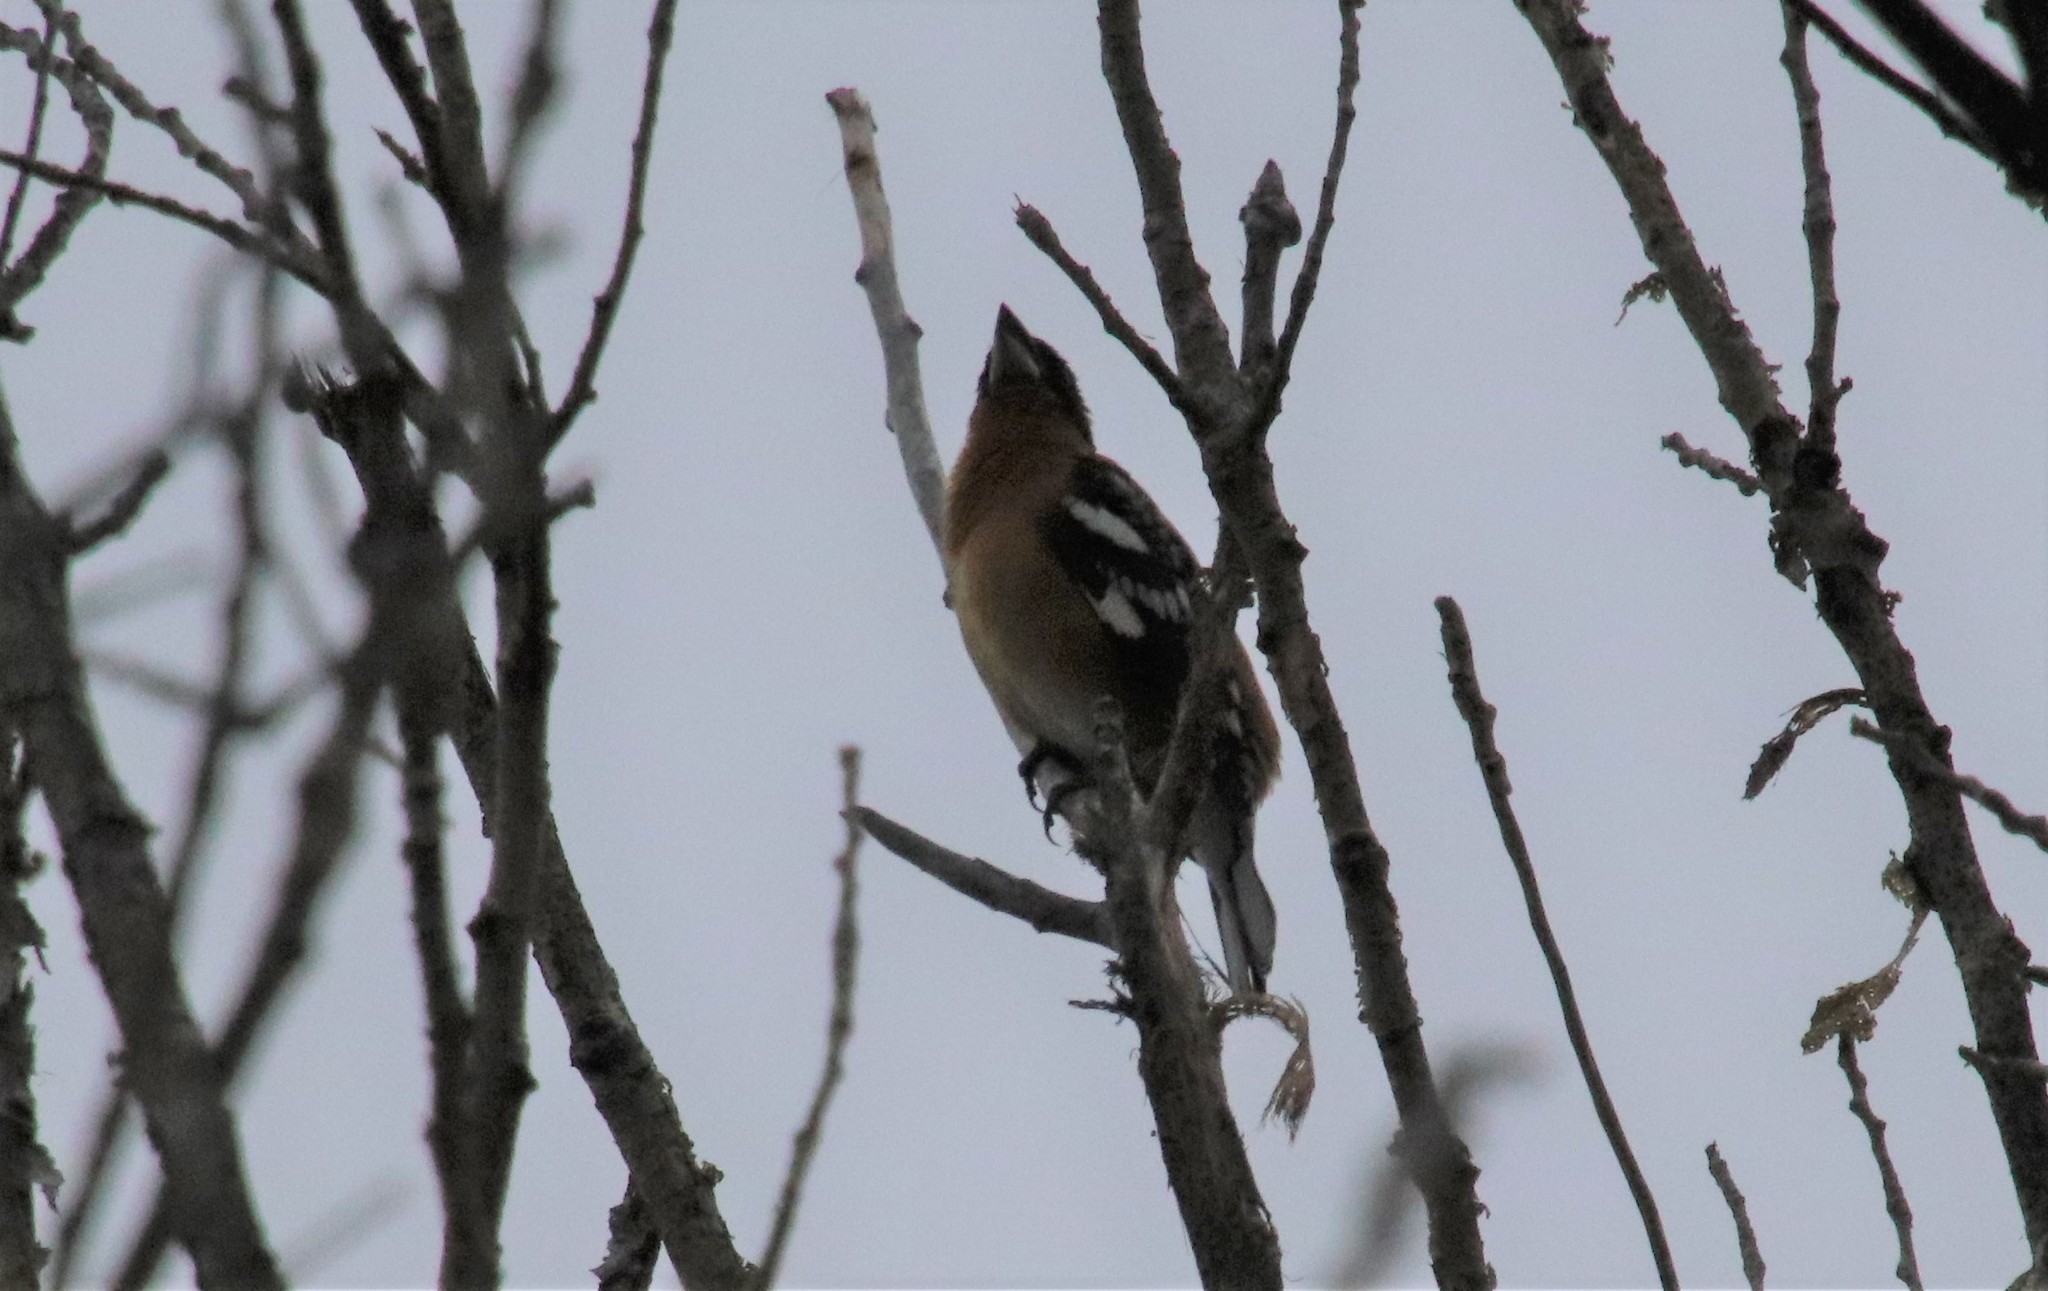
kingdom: Animalia
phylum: Chordata
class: Aves
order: Passeriformes
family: Cardinalidae
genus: Pheucticus
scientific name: Pheucticus melanocephalus
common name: Black-headed grosbeak
